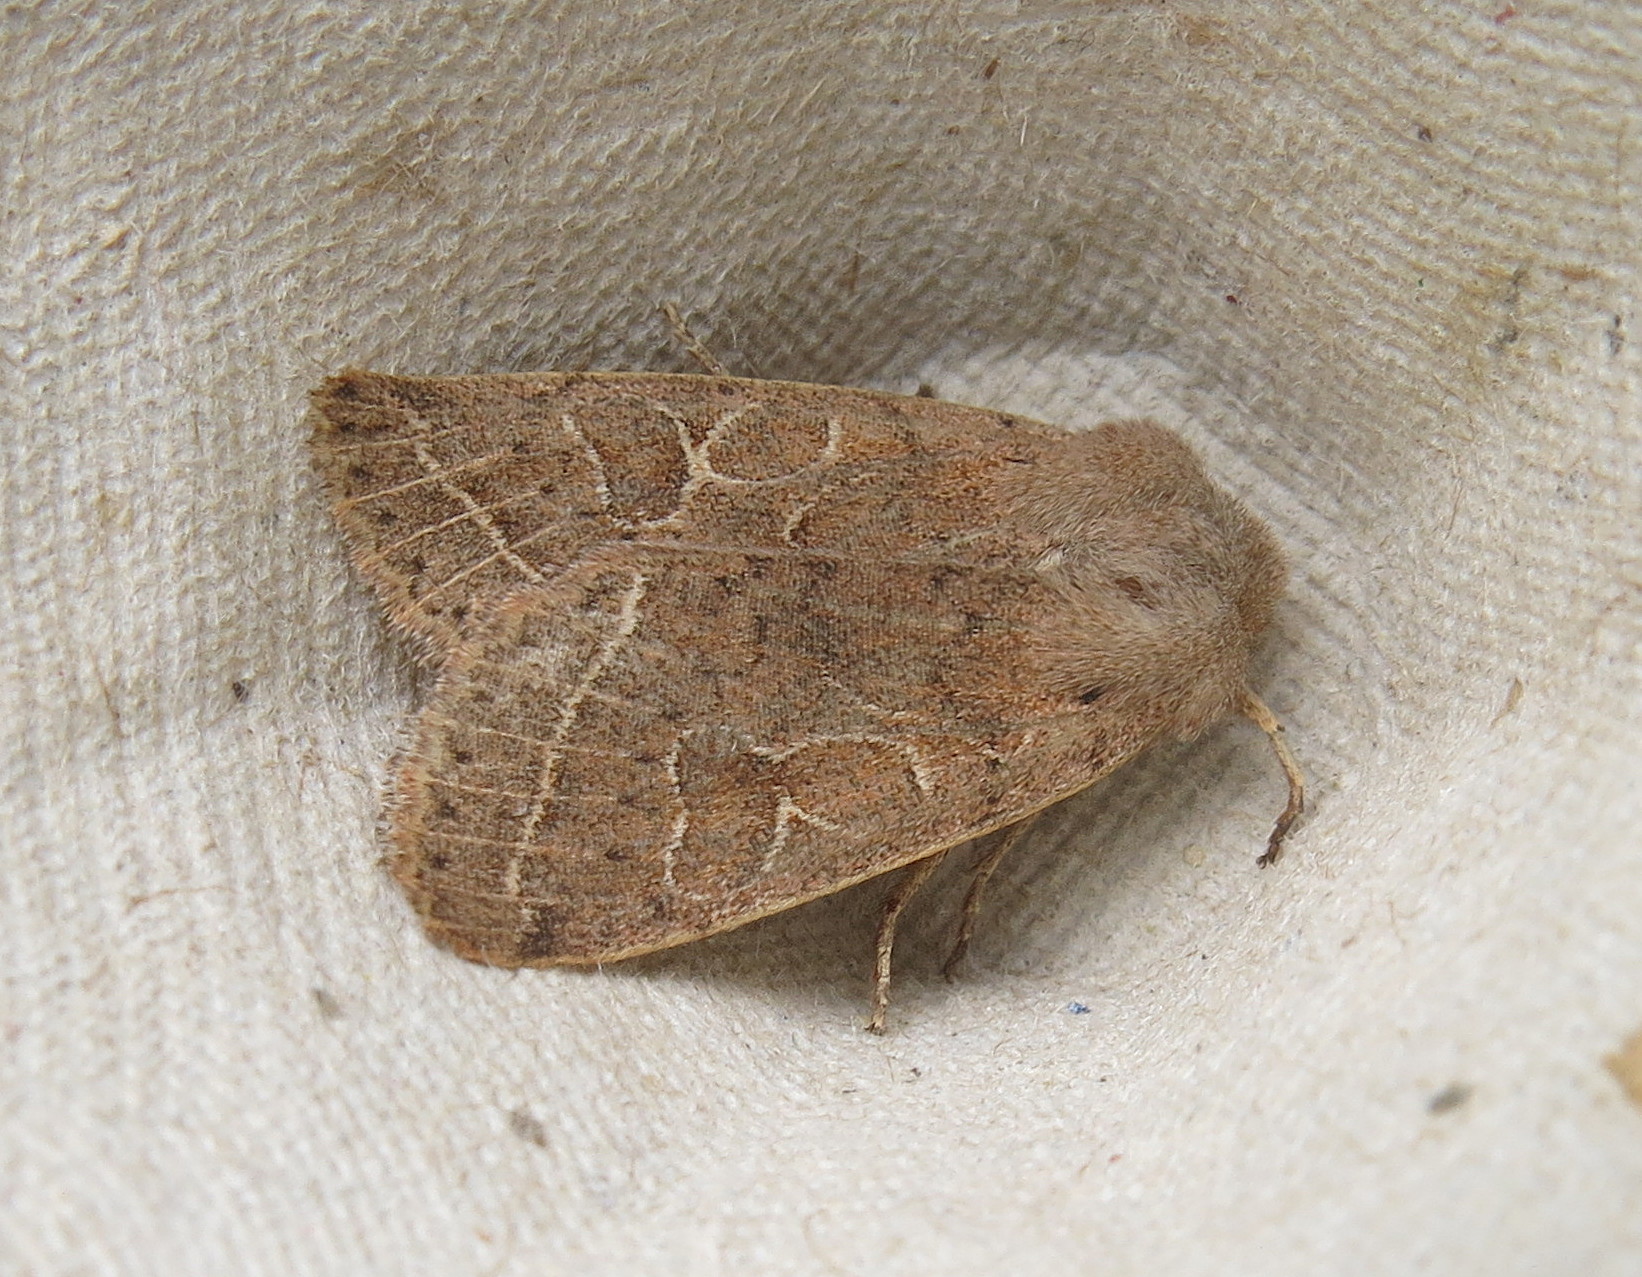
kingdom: Animalia
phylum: Arthropoda
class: Insecta
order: Lepidoptera
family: Noctuidae
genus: Orthosia
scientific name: Orthosia cerasi
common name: Common quaker
